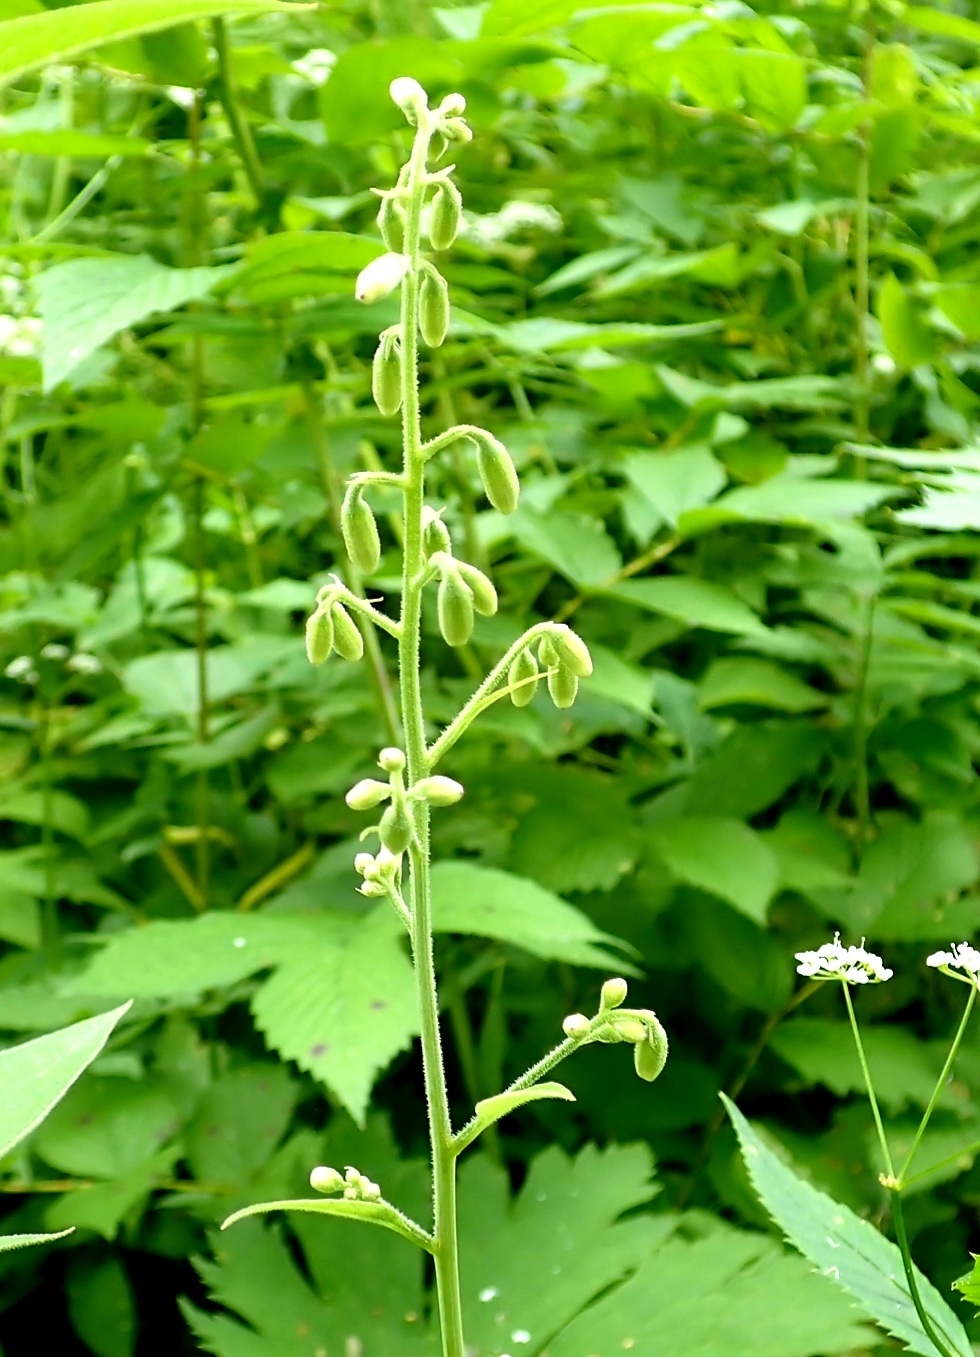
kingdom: Plantae
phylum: Tracheophyta
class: Magnoliopsida
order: Asterales
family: Asteraceae
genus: Parasenecio
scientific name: Parasenecio hastatus
